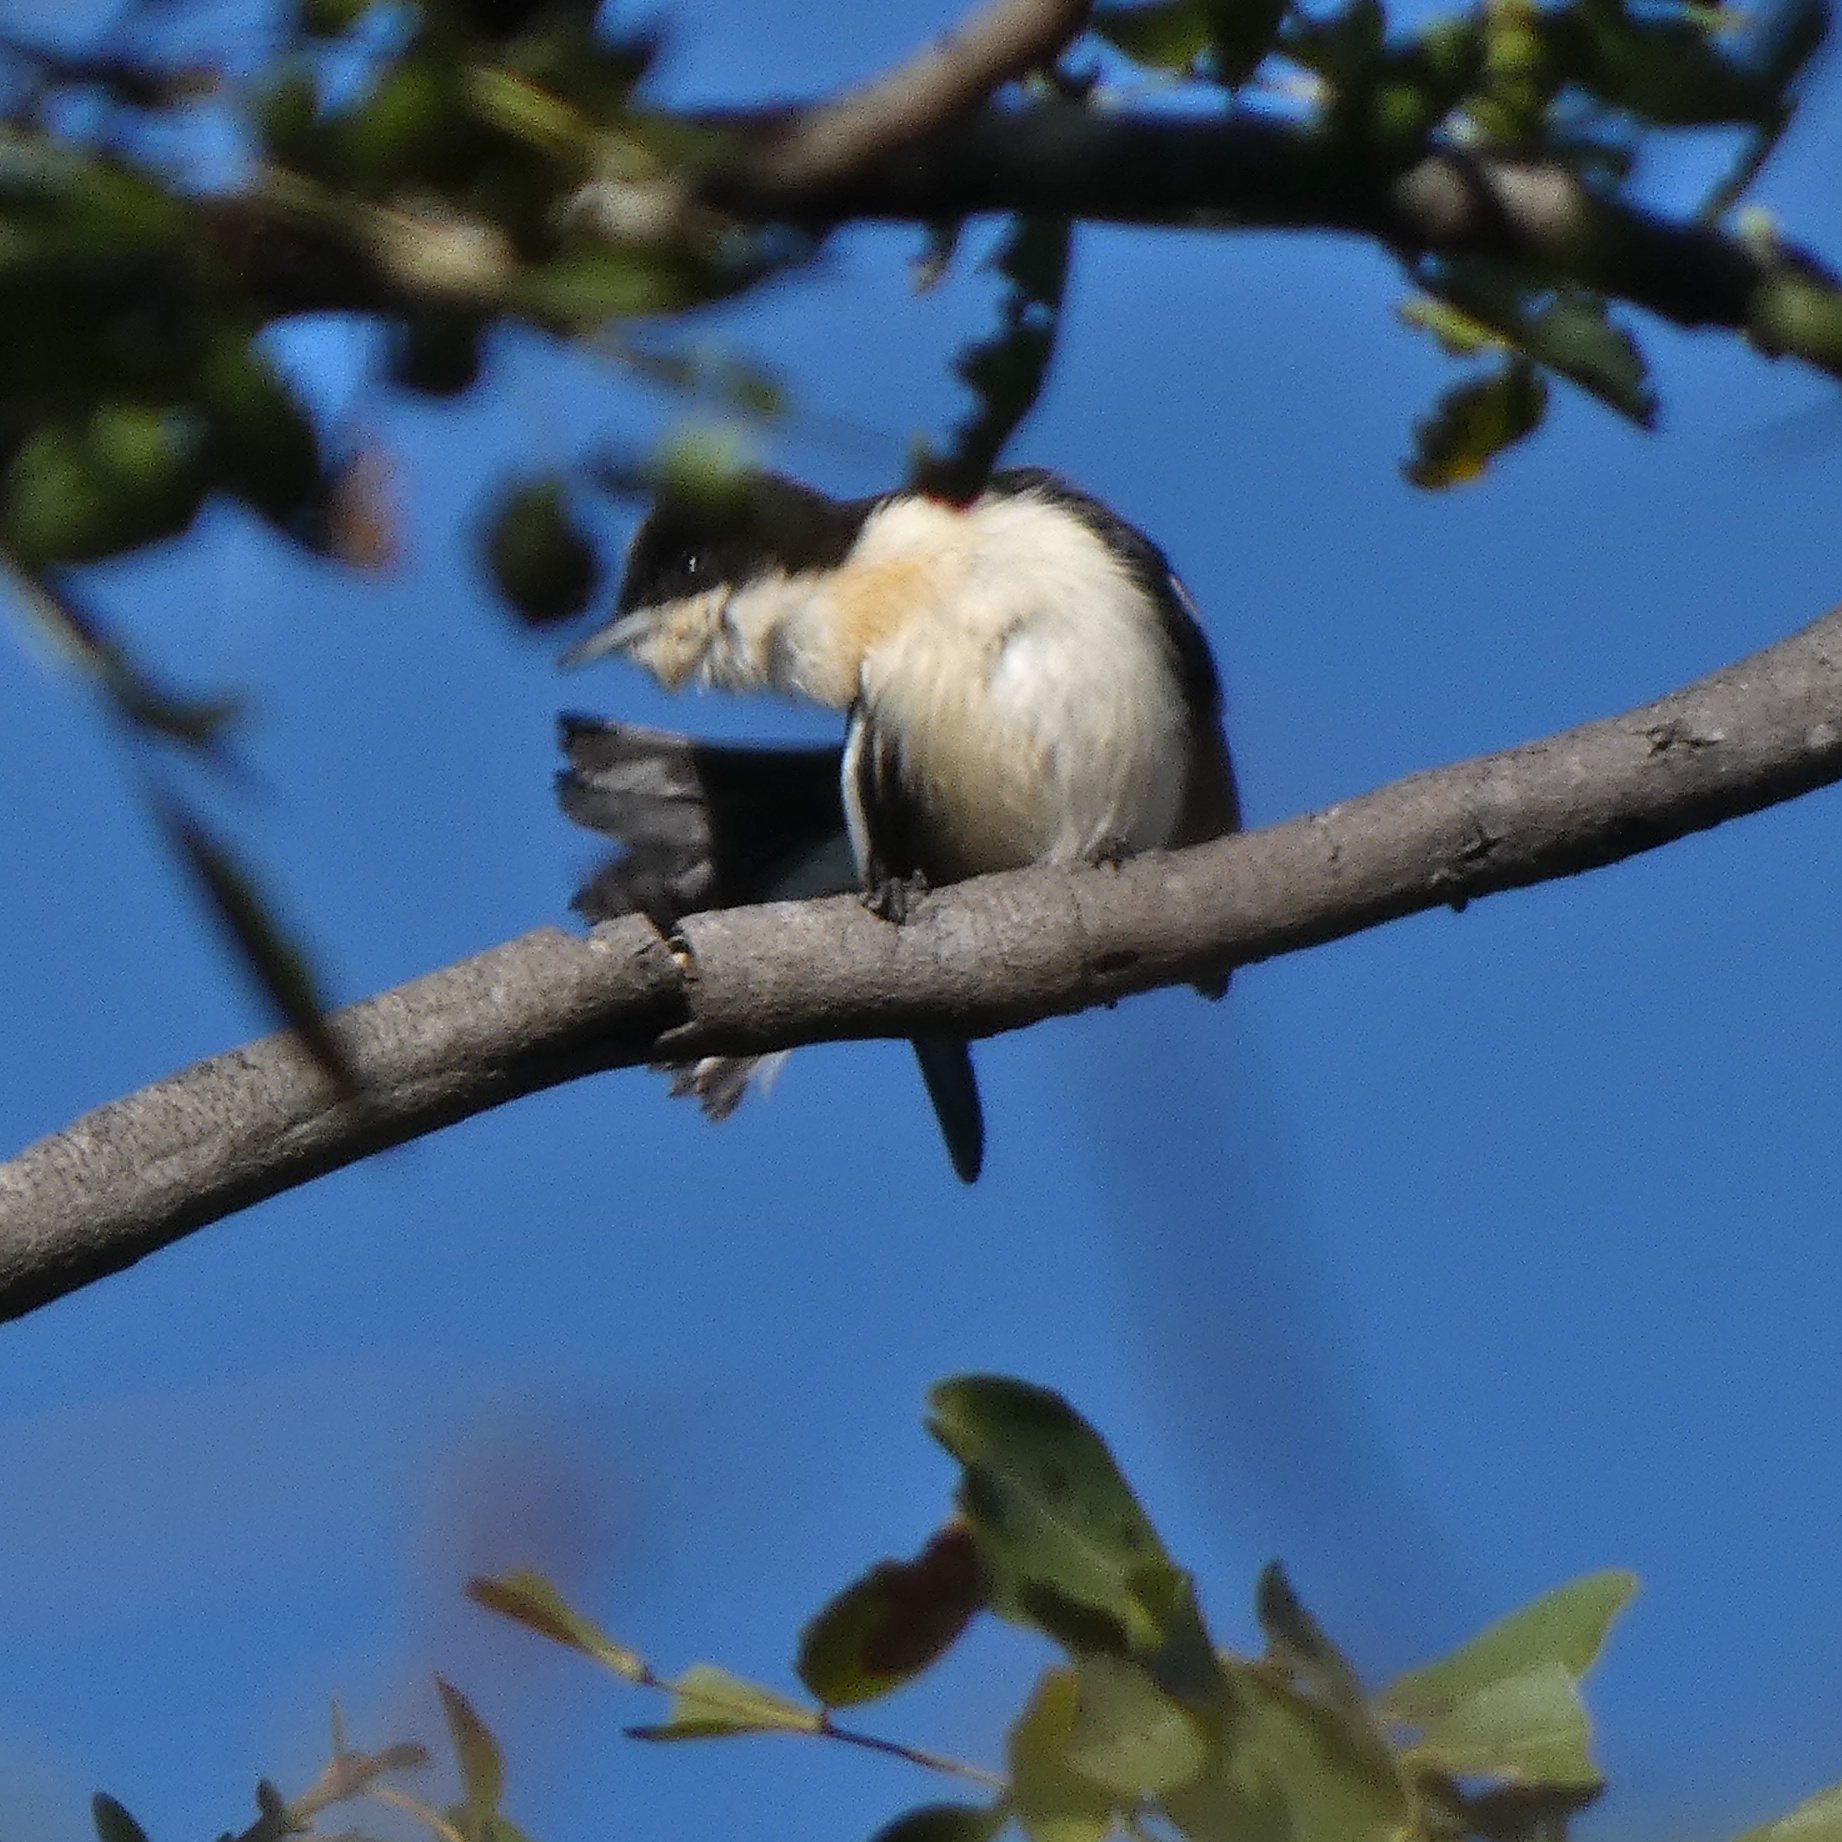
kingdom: Animalia
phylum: Chordata
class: Aves
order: Passeriformes
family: Hyliotidae
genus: Hyliota
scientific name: Hyliota australis
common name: Southern hyliota
